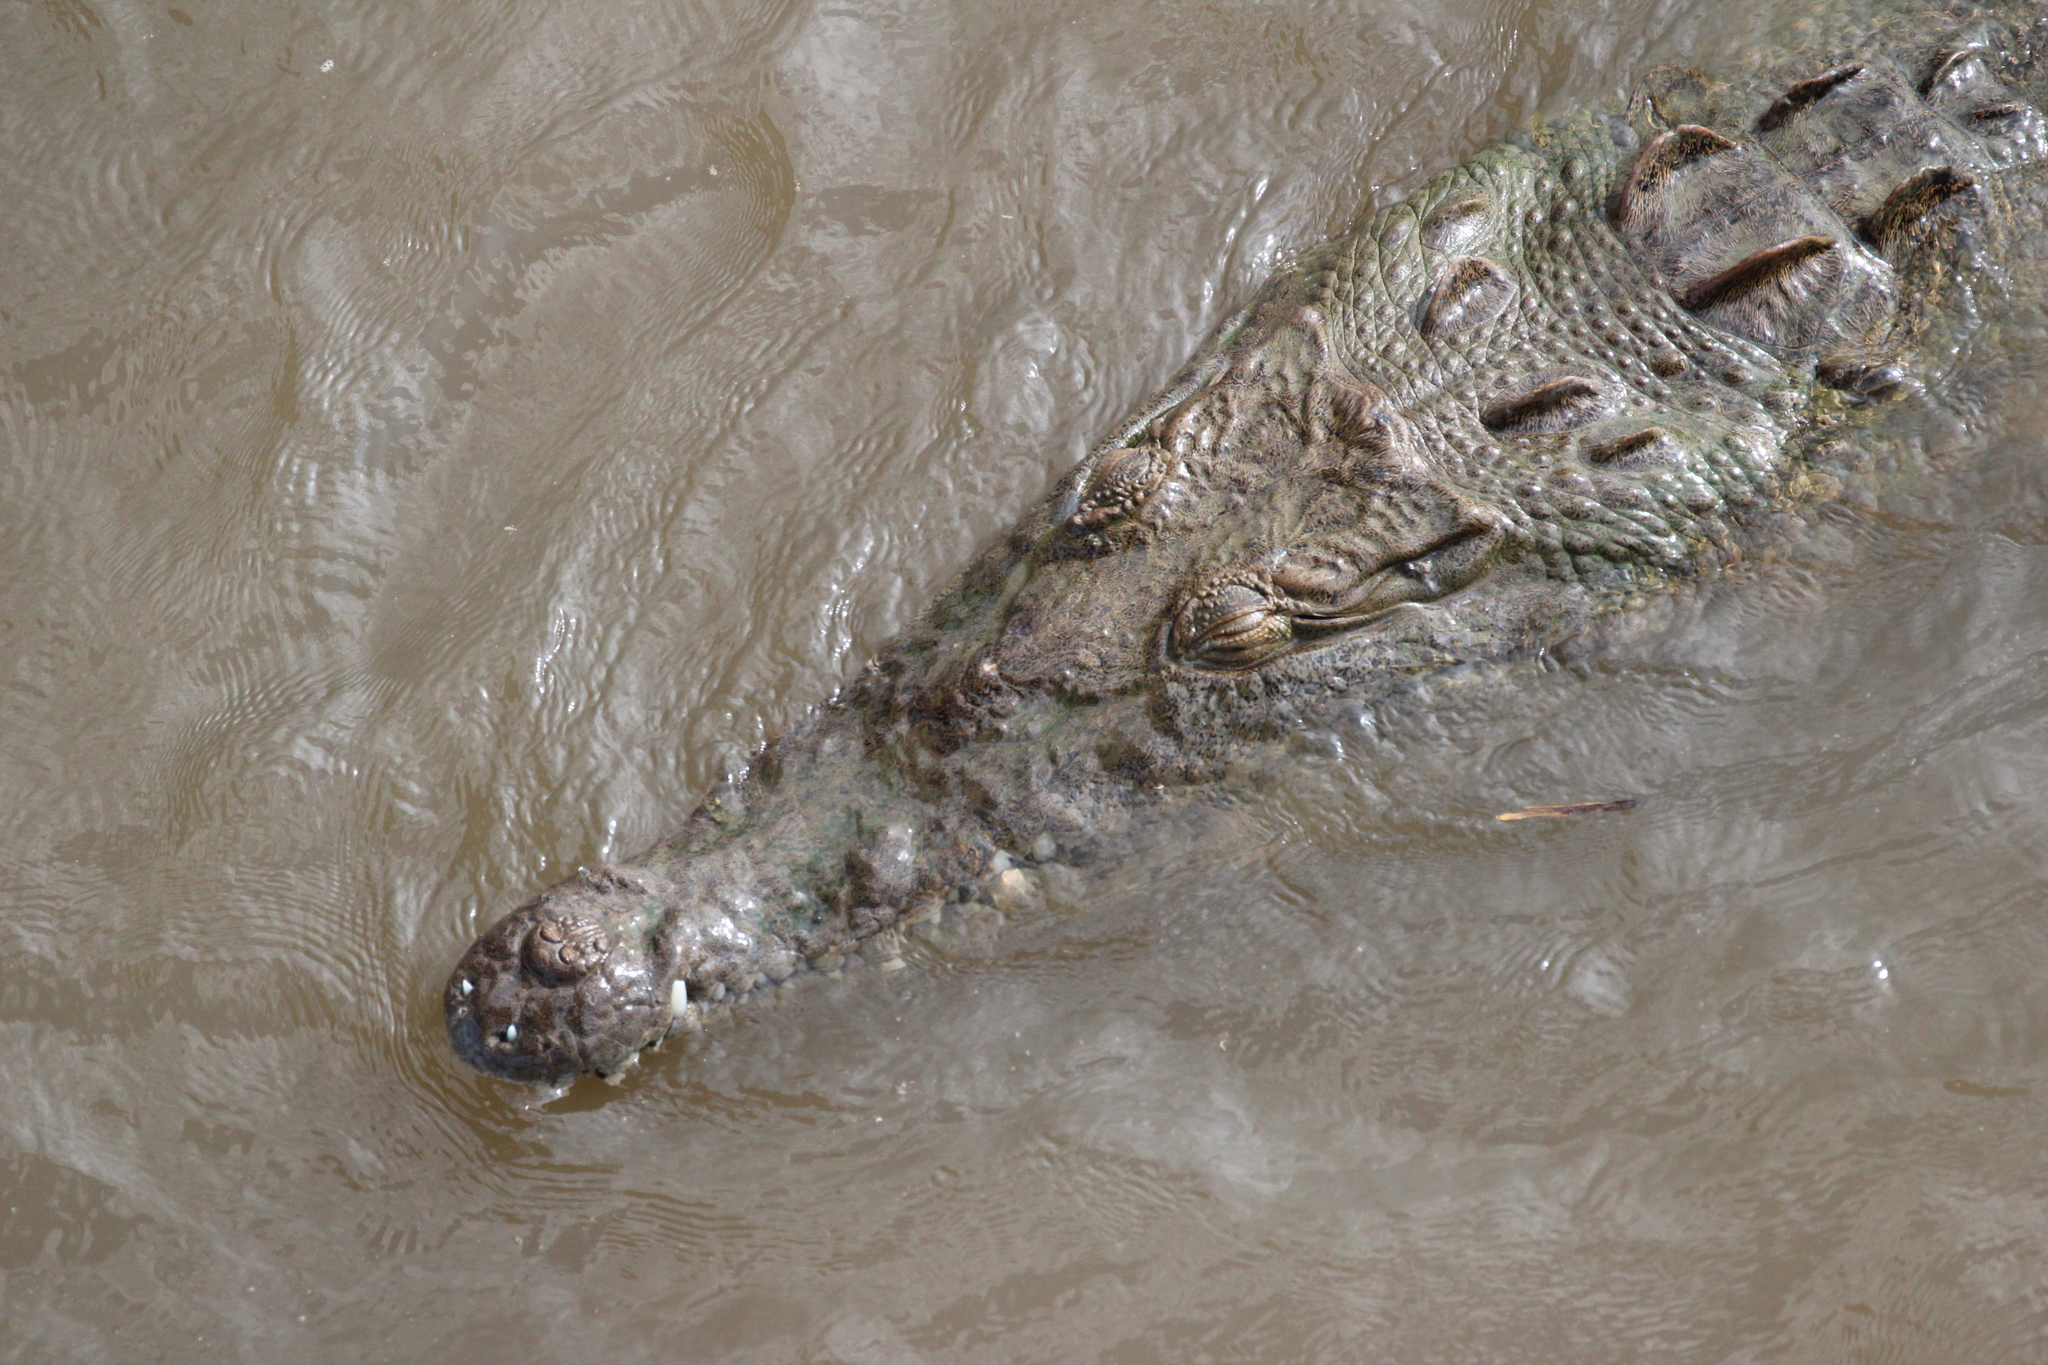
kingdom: Animalia
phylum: Chordata
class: Crocodylia
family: Crocodylidae
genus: Crocodylus
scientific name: Crocodylus acutus
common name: American crocodile
